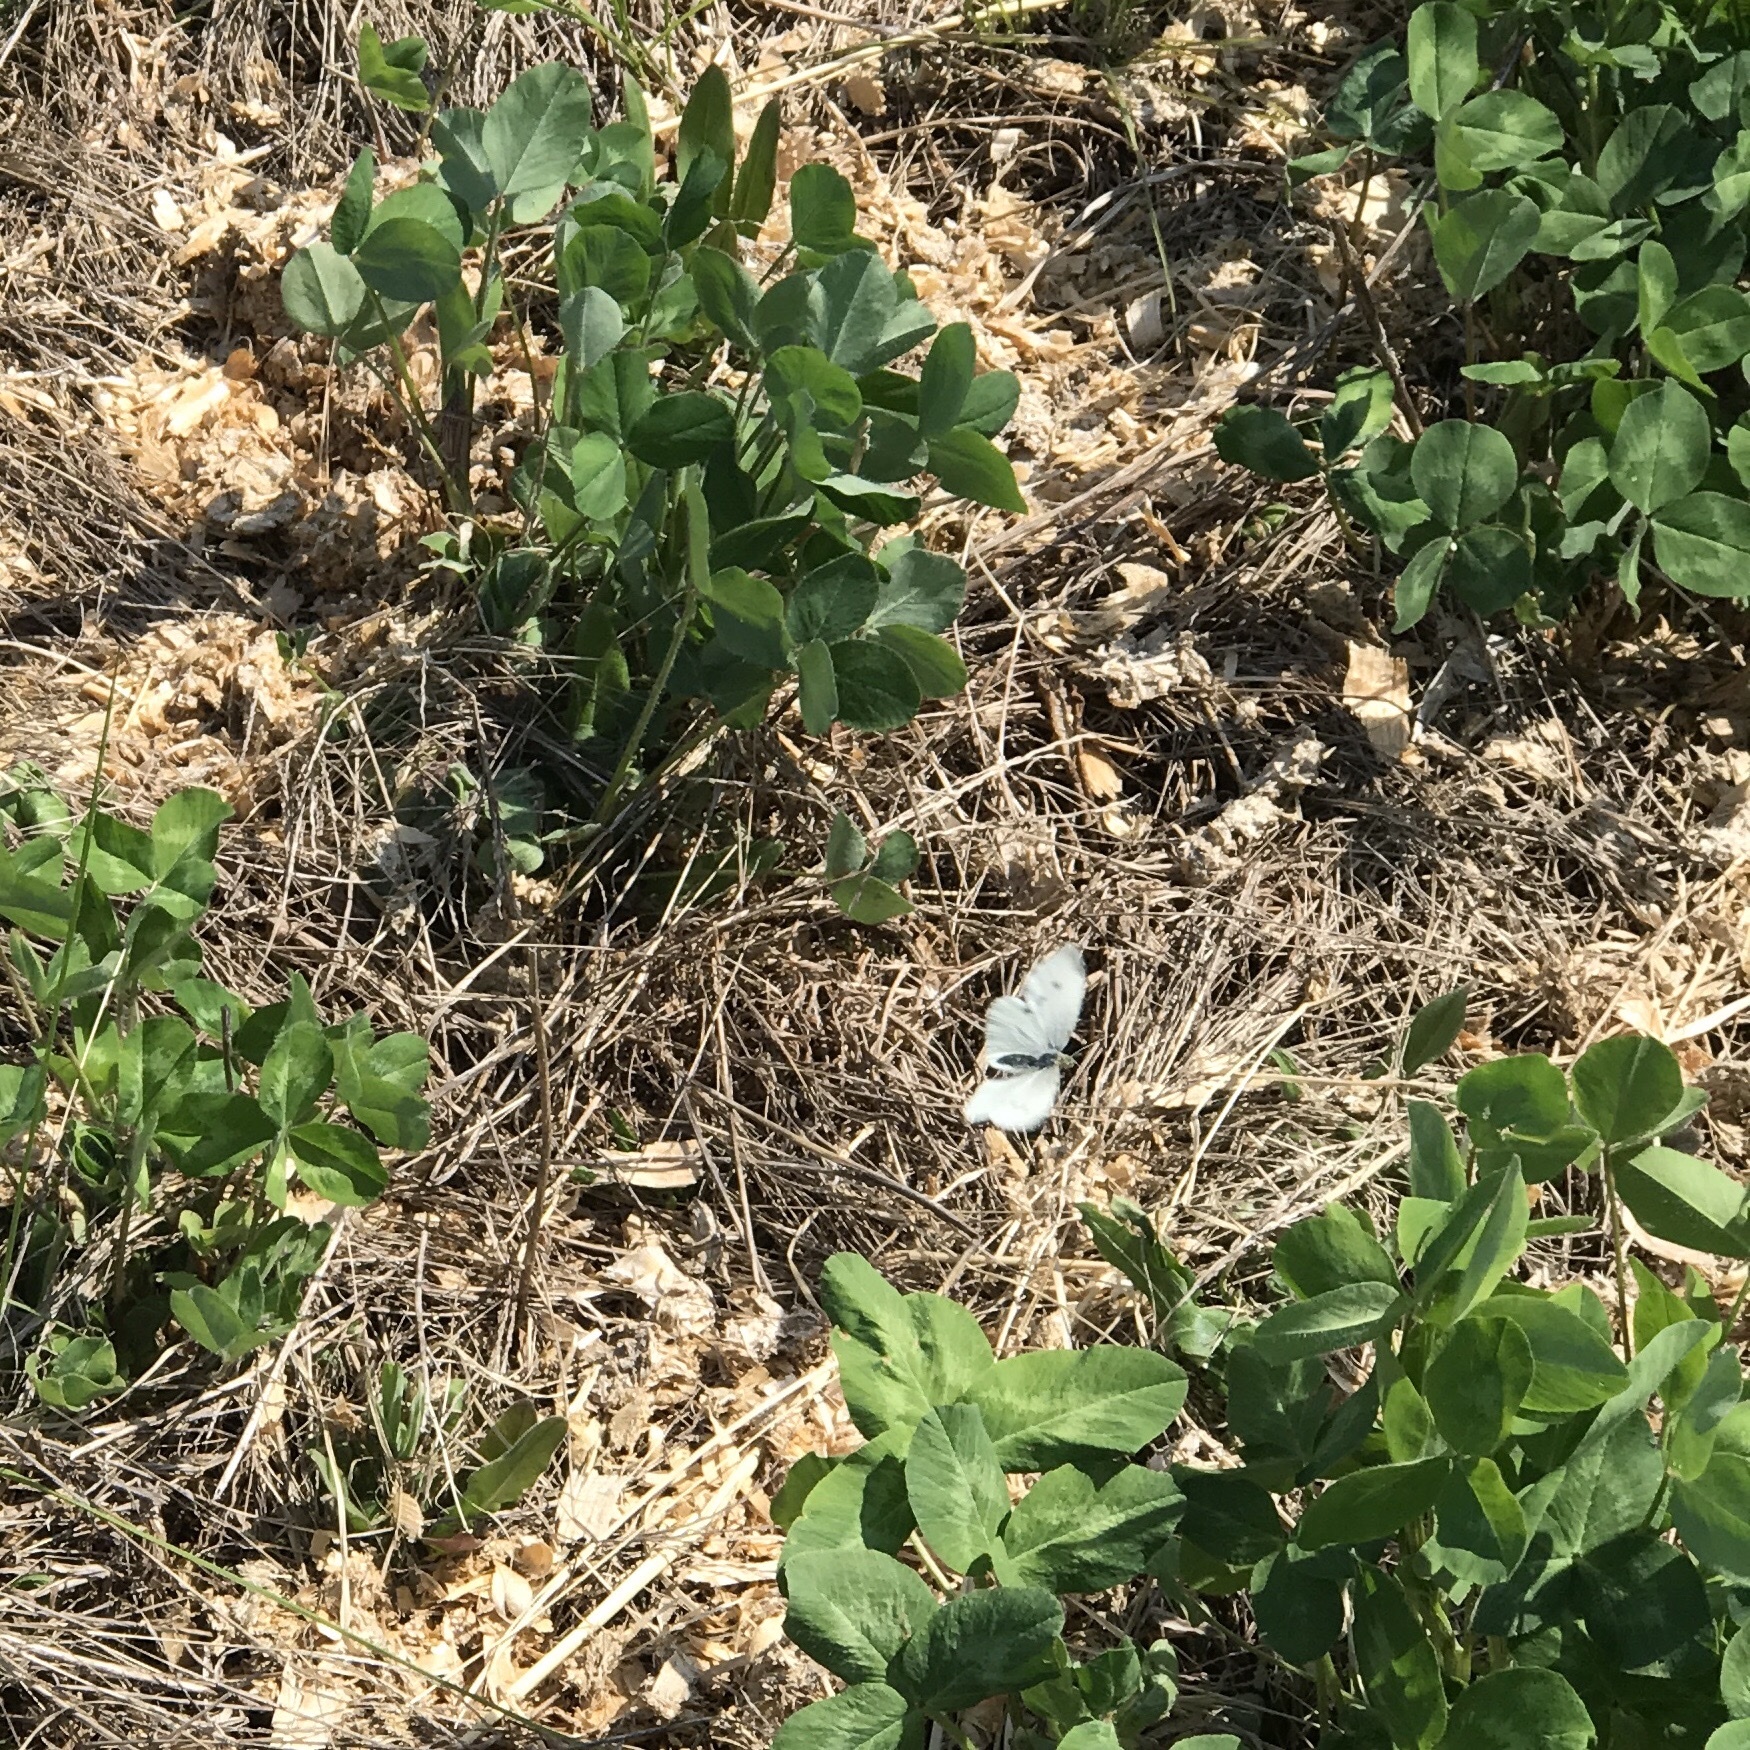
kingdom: Animalia
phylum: Arthropoda
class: Insecta
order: Lepidoptera
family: Pieridae
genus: Pieris
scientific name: Pieris rapae
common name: Small white
